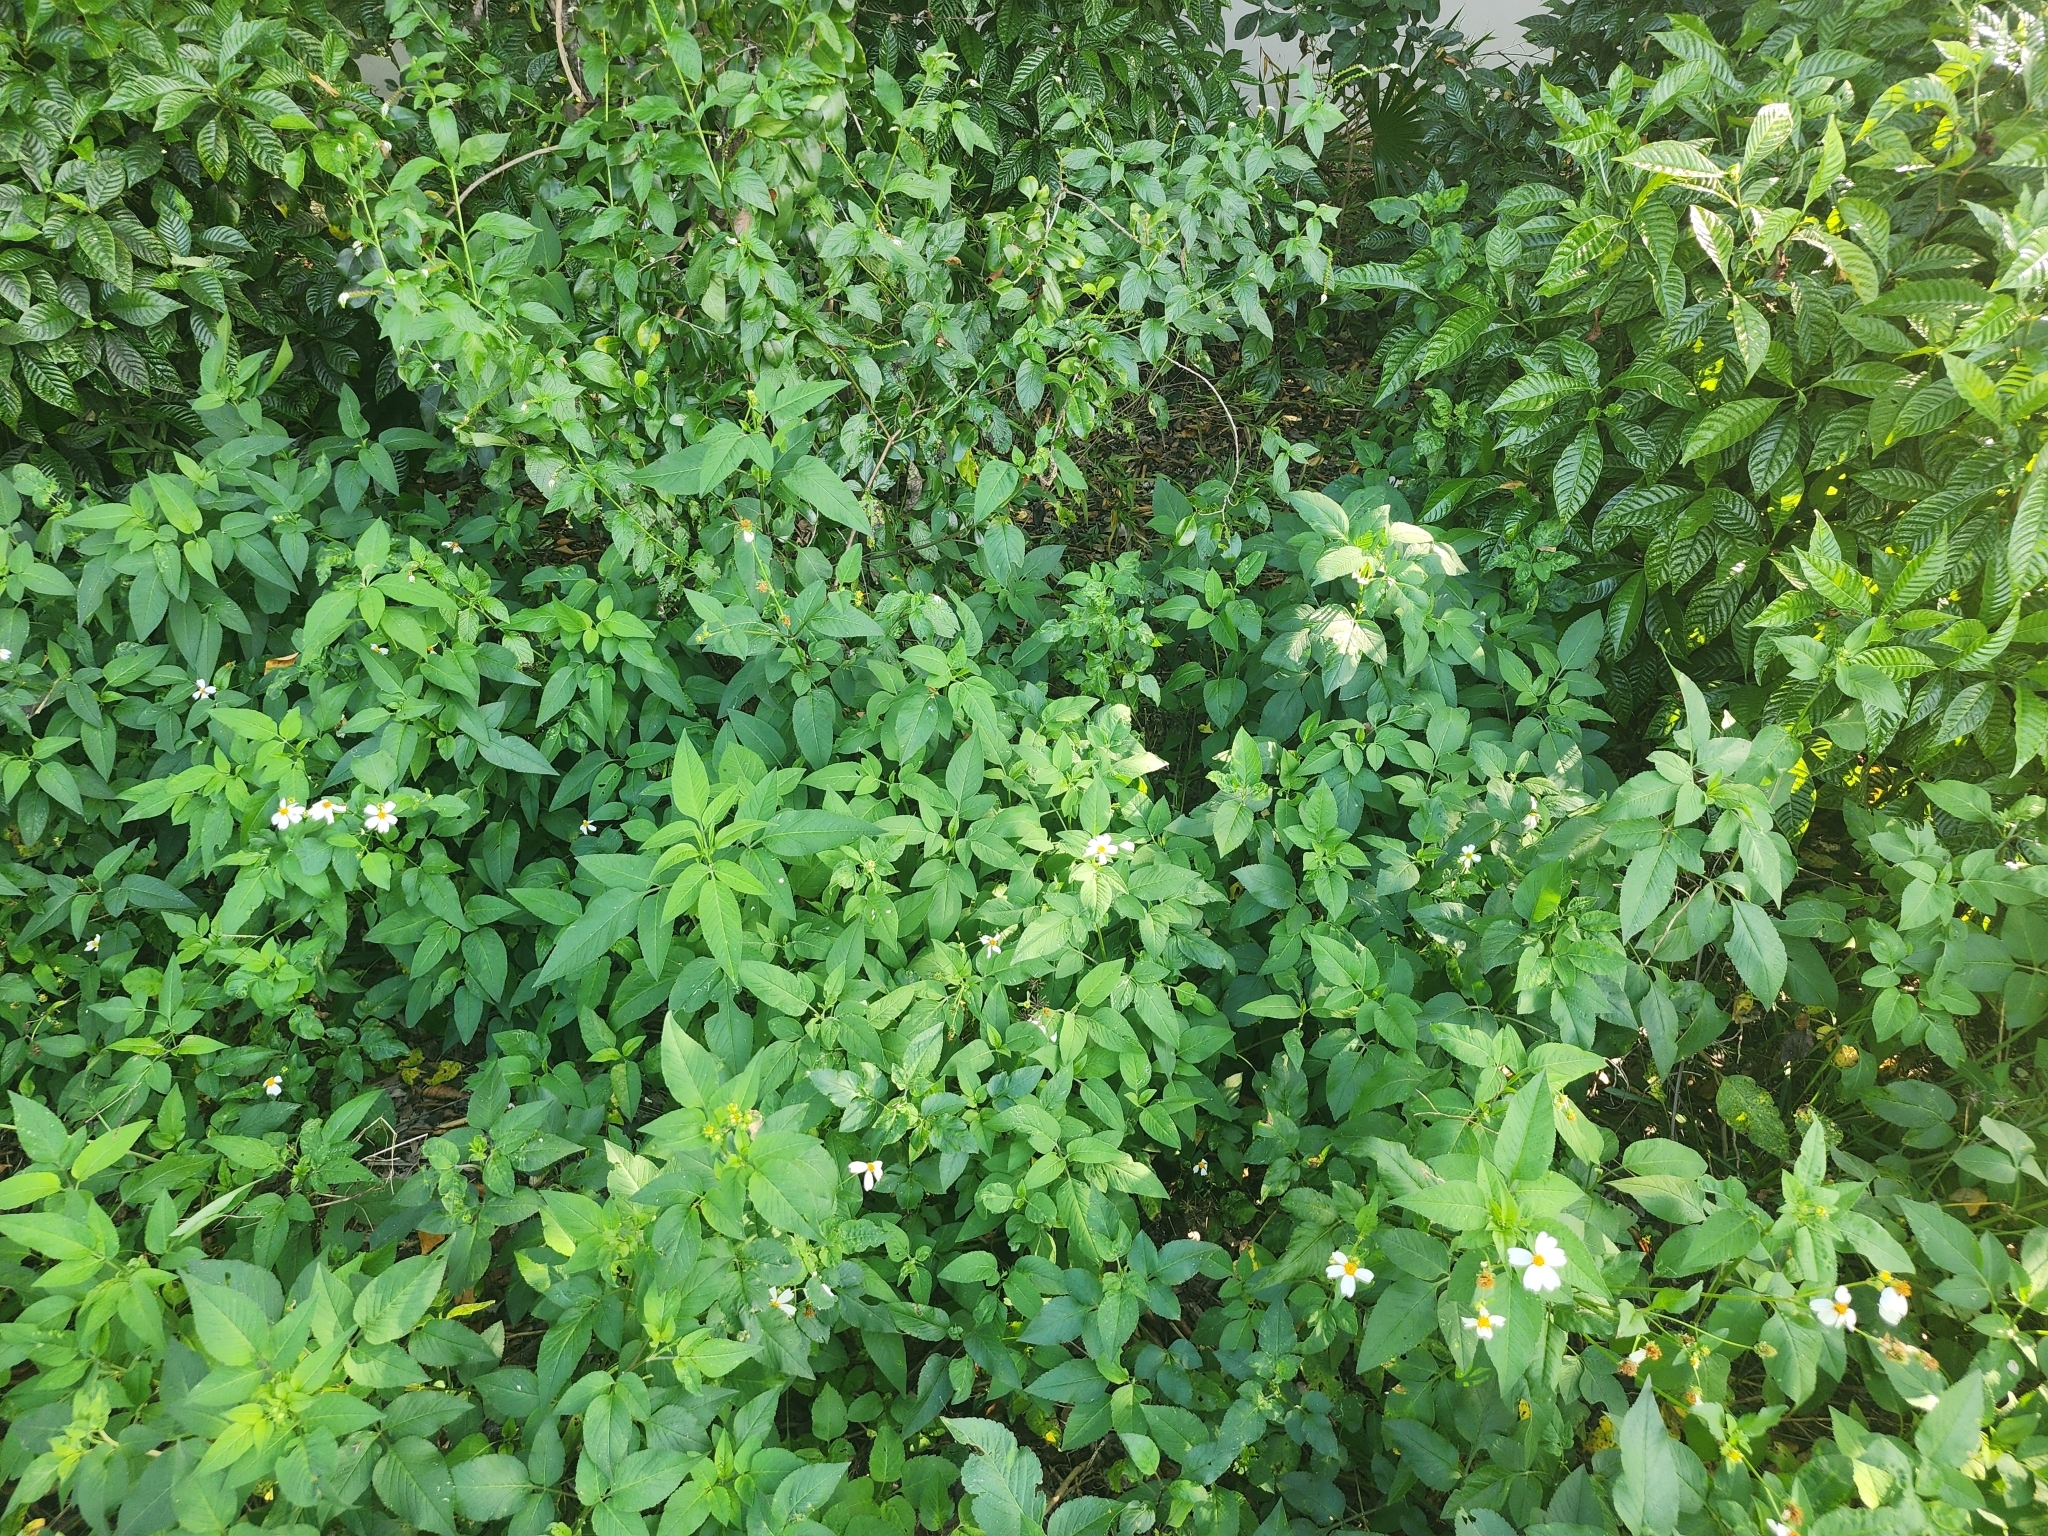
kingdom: Plantae
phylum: Tracheophyta
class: Magnoliopsida
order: Asterales
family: Asteraceae
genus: Bidens
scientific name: Bidens alba
